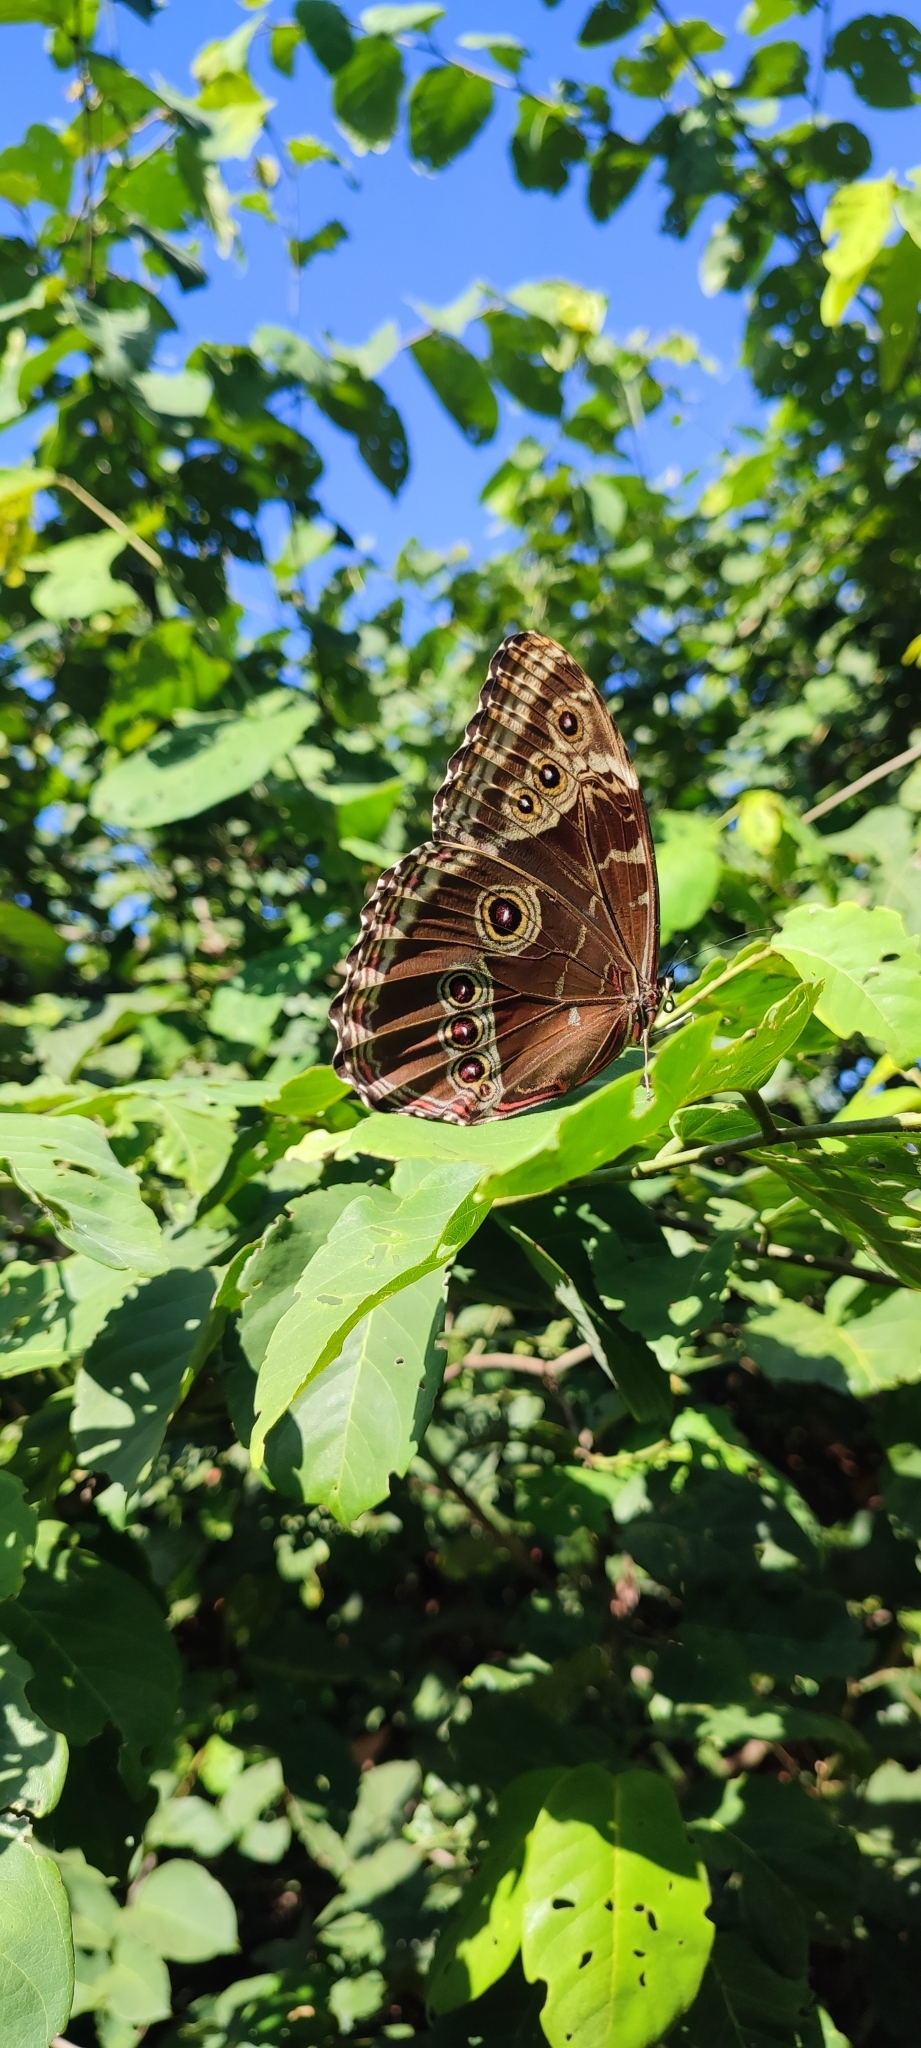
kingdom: Animalia
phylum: Arthropoda
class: Insecta
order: Lepidoptera
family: Nymphalidae
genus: Morpho
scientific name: Morpho helenor
